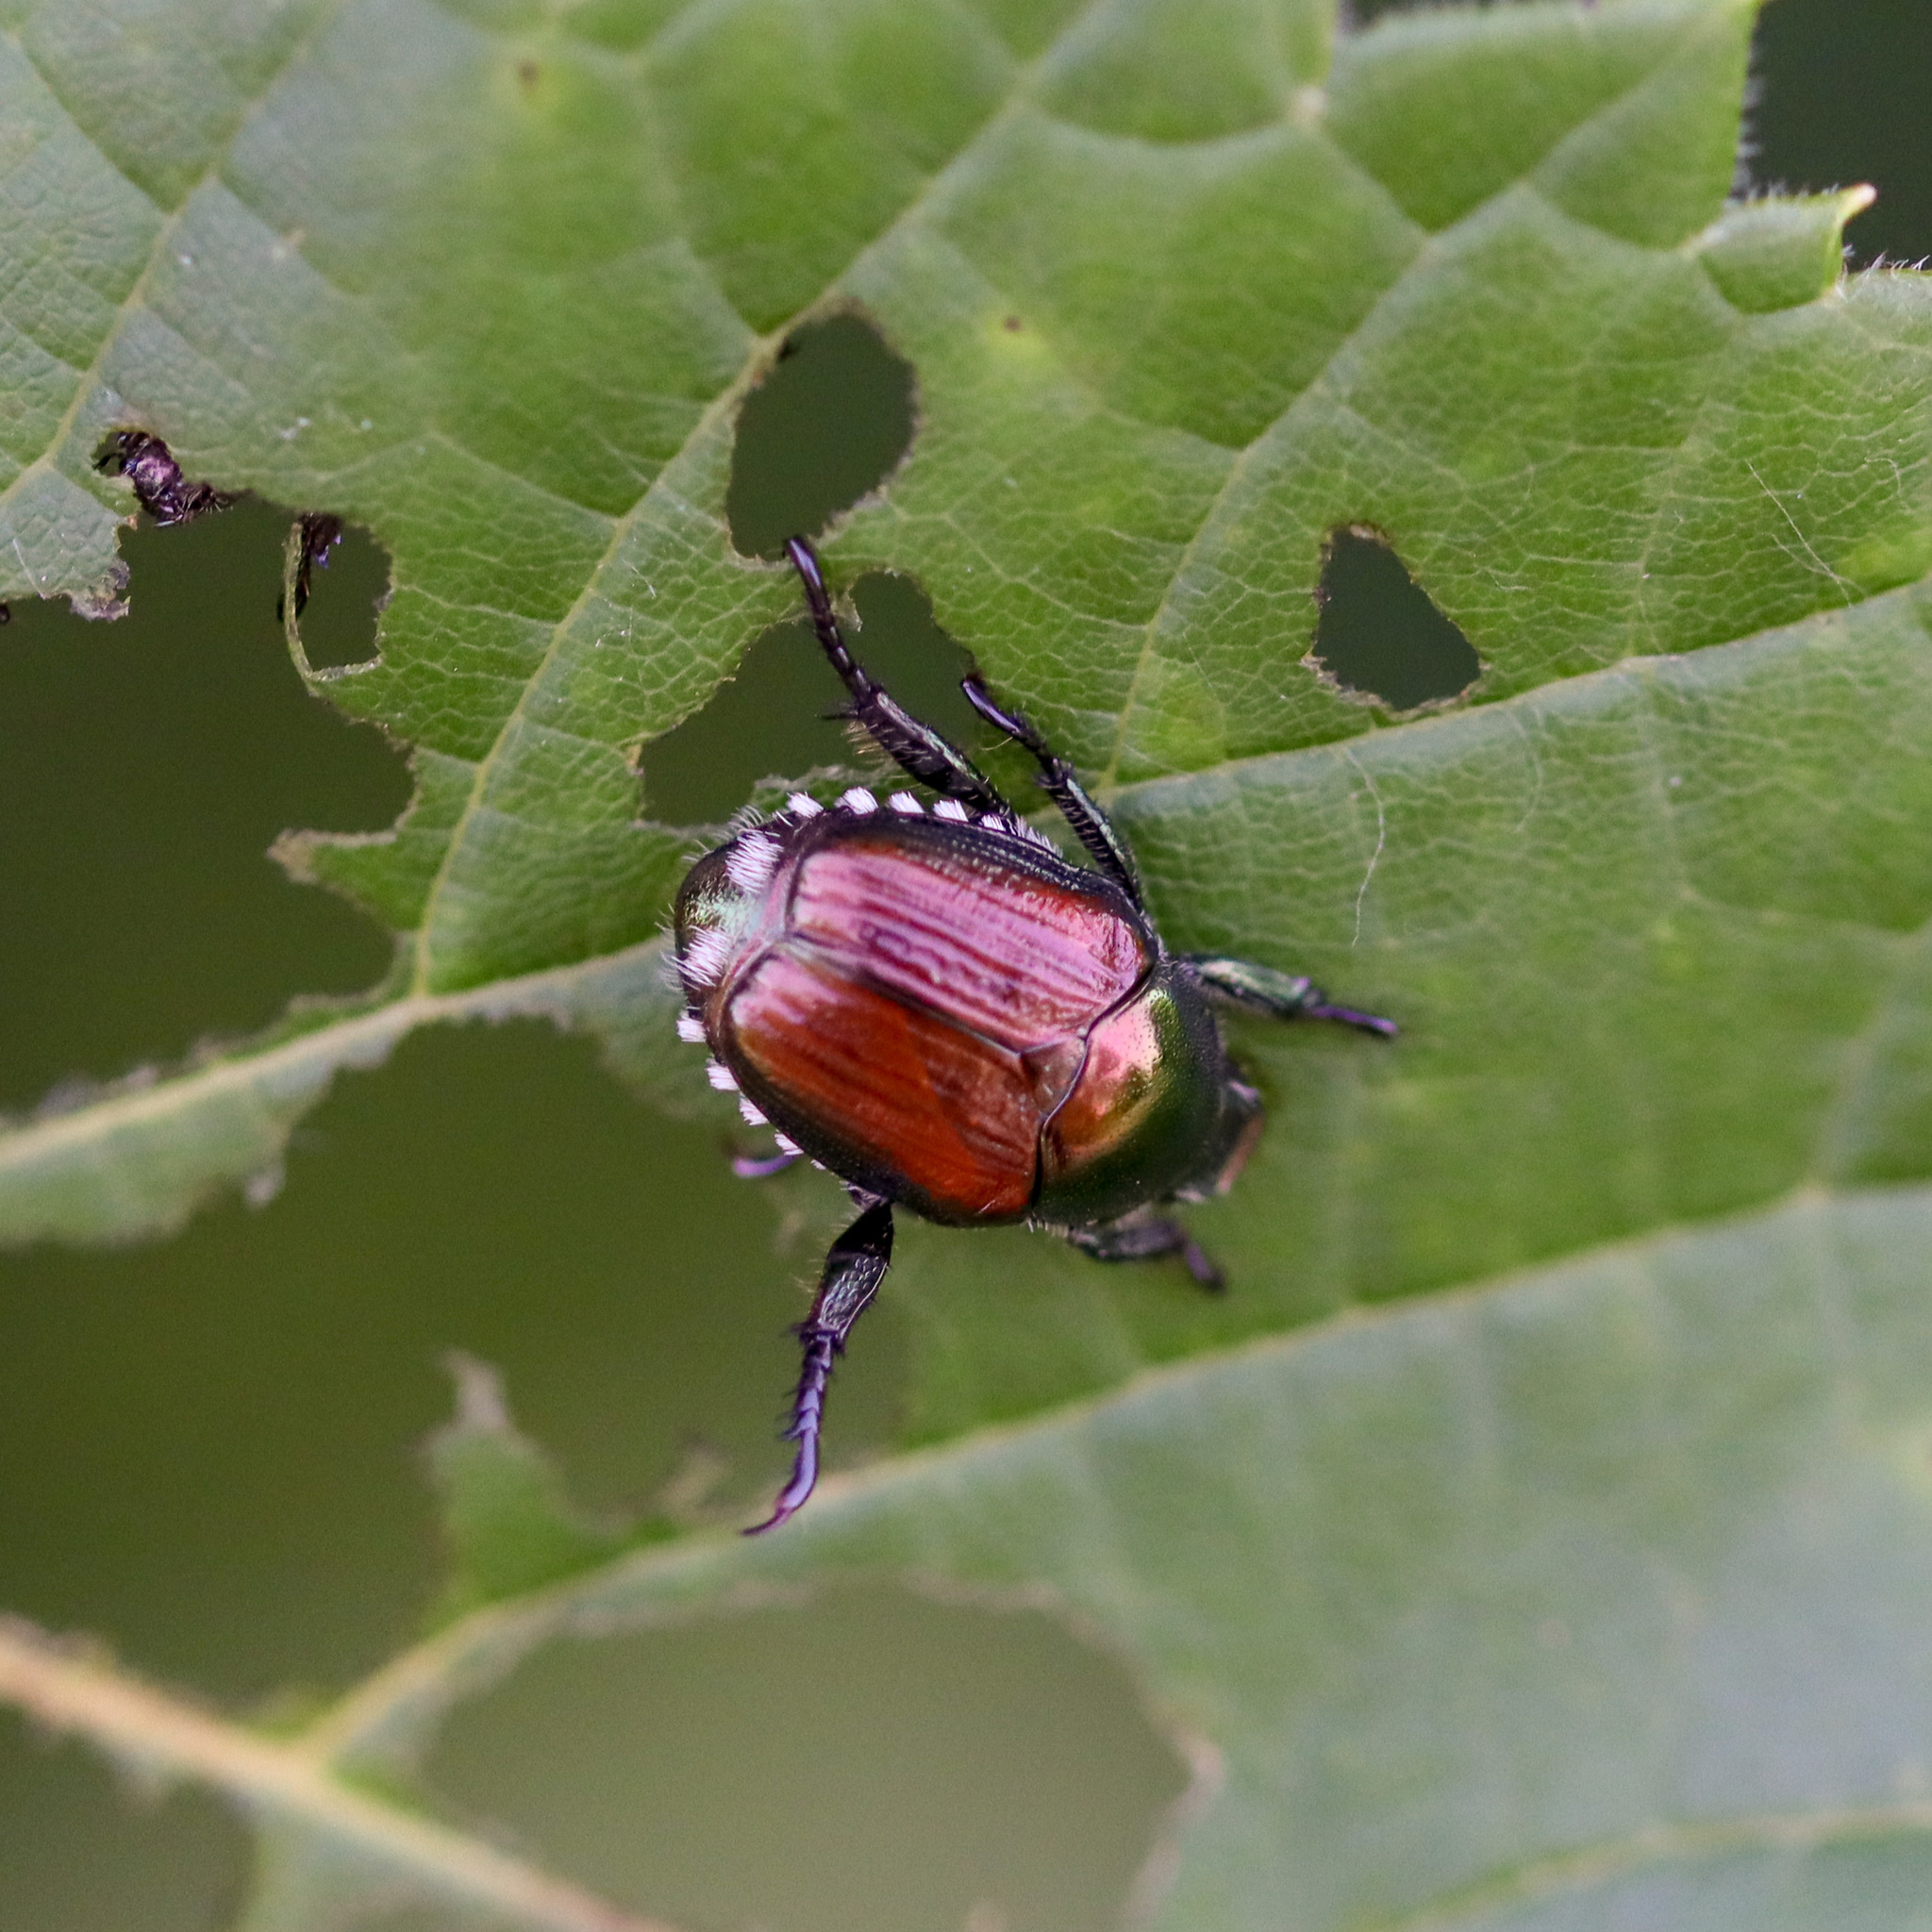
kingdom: Animalia
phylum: Arthropoda
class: Insecta
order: Coleoptera
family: Scarabaeidae
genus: Popillia
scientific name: Popillia japonica
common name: Japanese beetle
